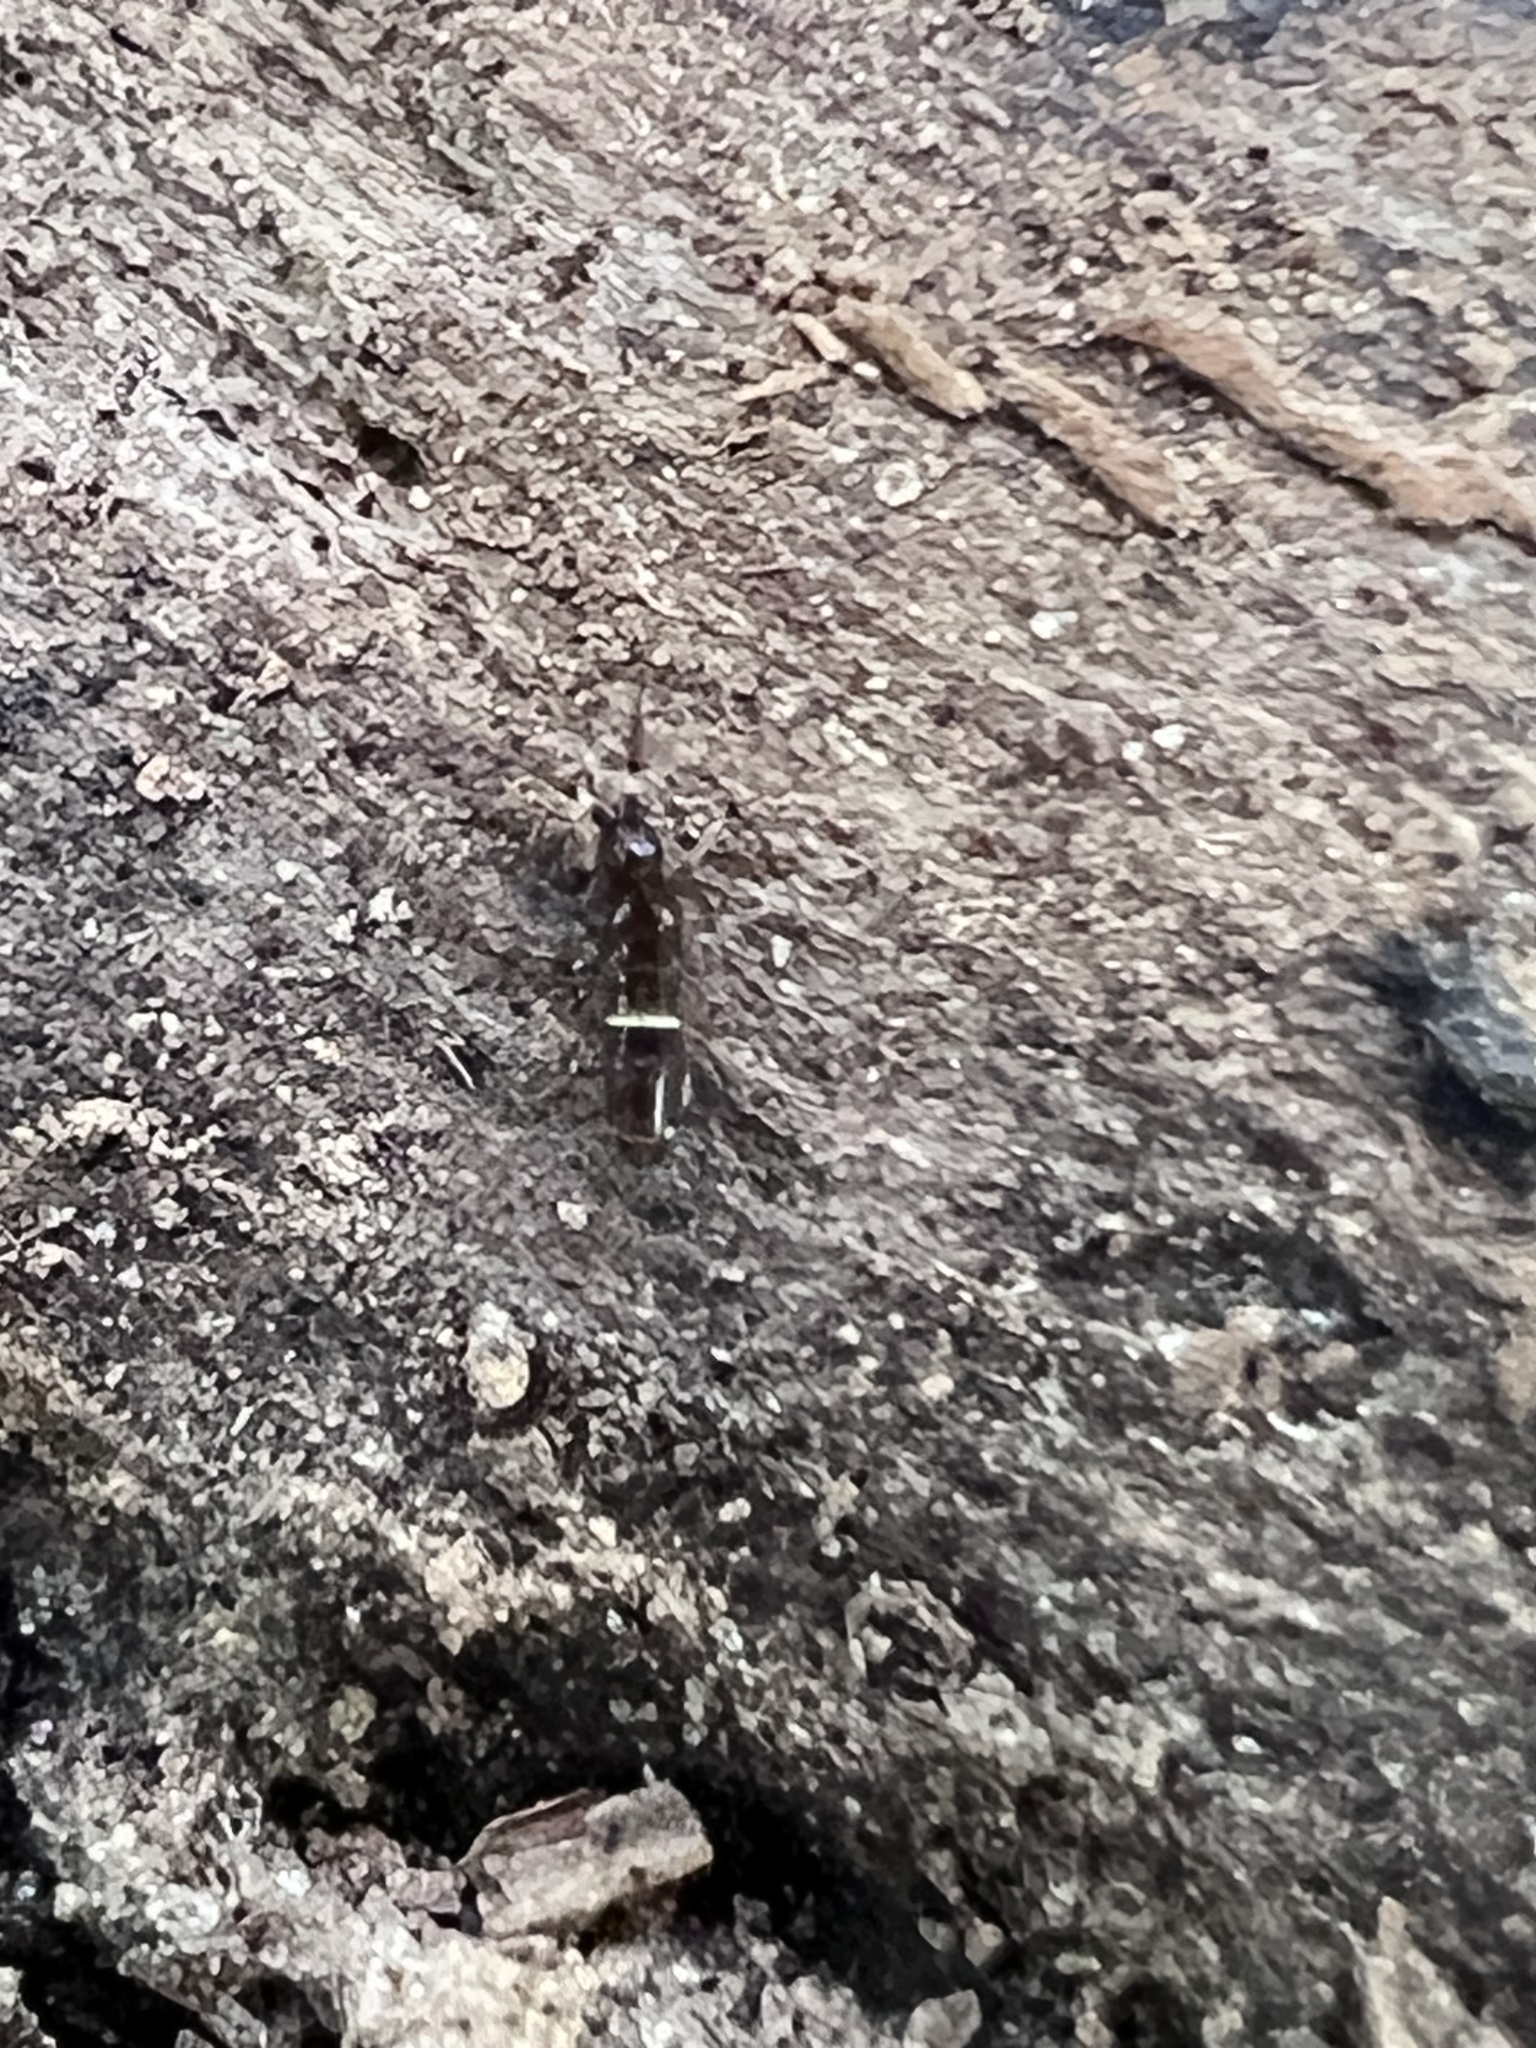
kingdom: Animalia
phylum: Arthropoda
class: Collembola
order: Entomobryomorpha
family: Orchesellidae
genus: Orchesella
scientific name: Orchesella cincta
